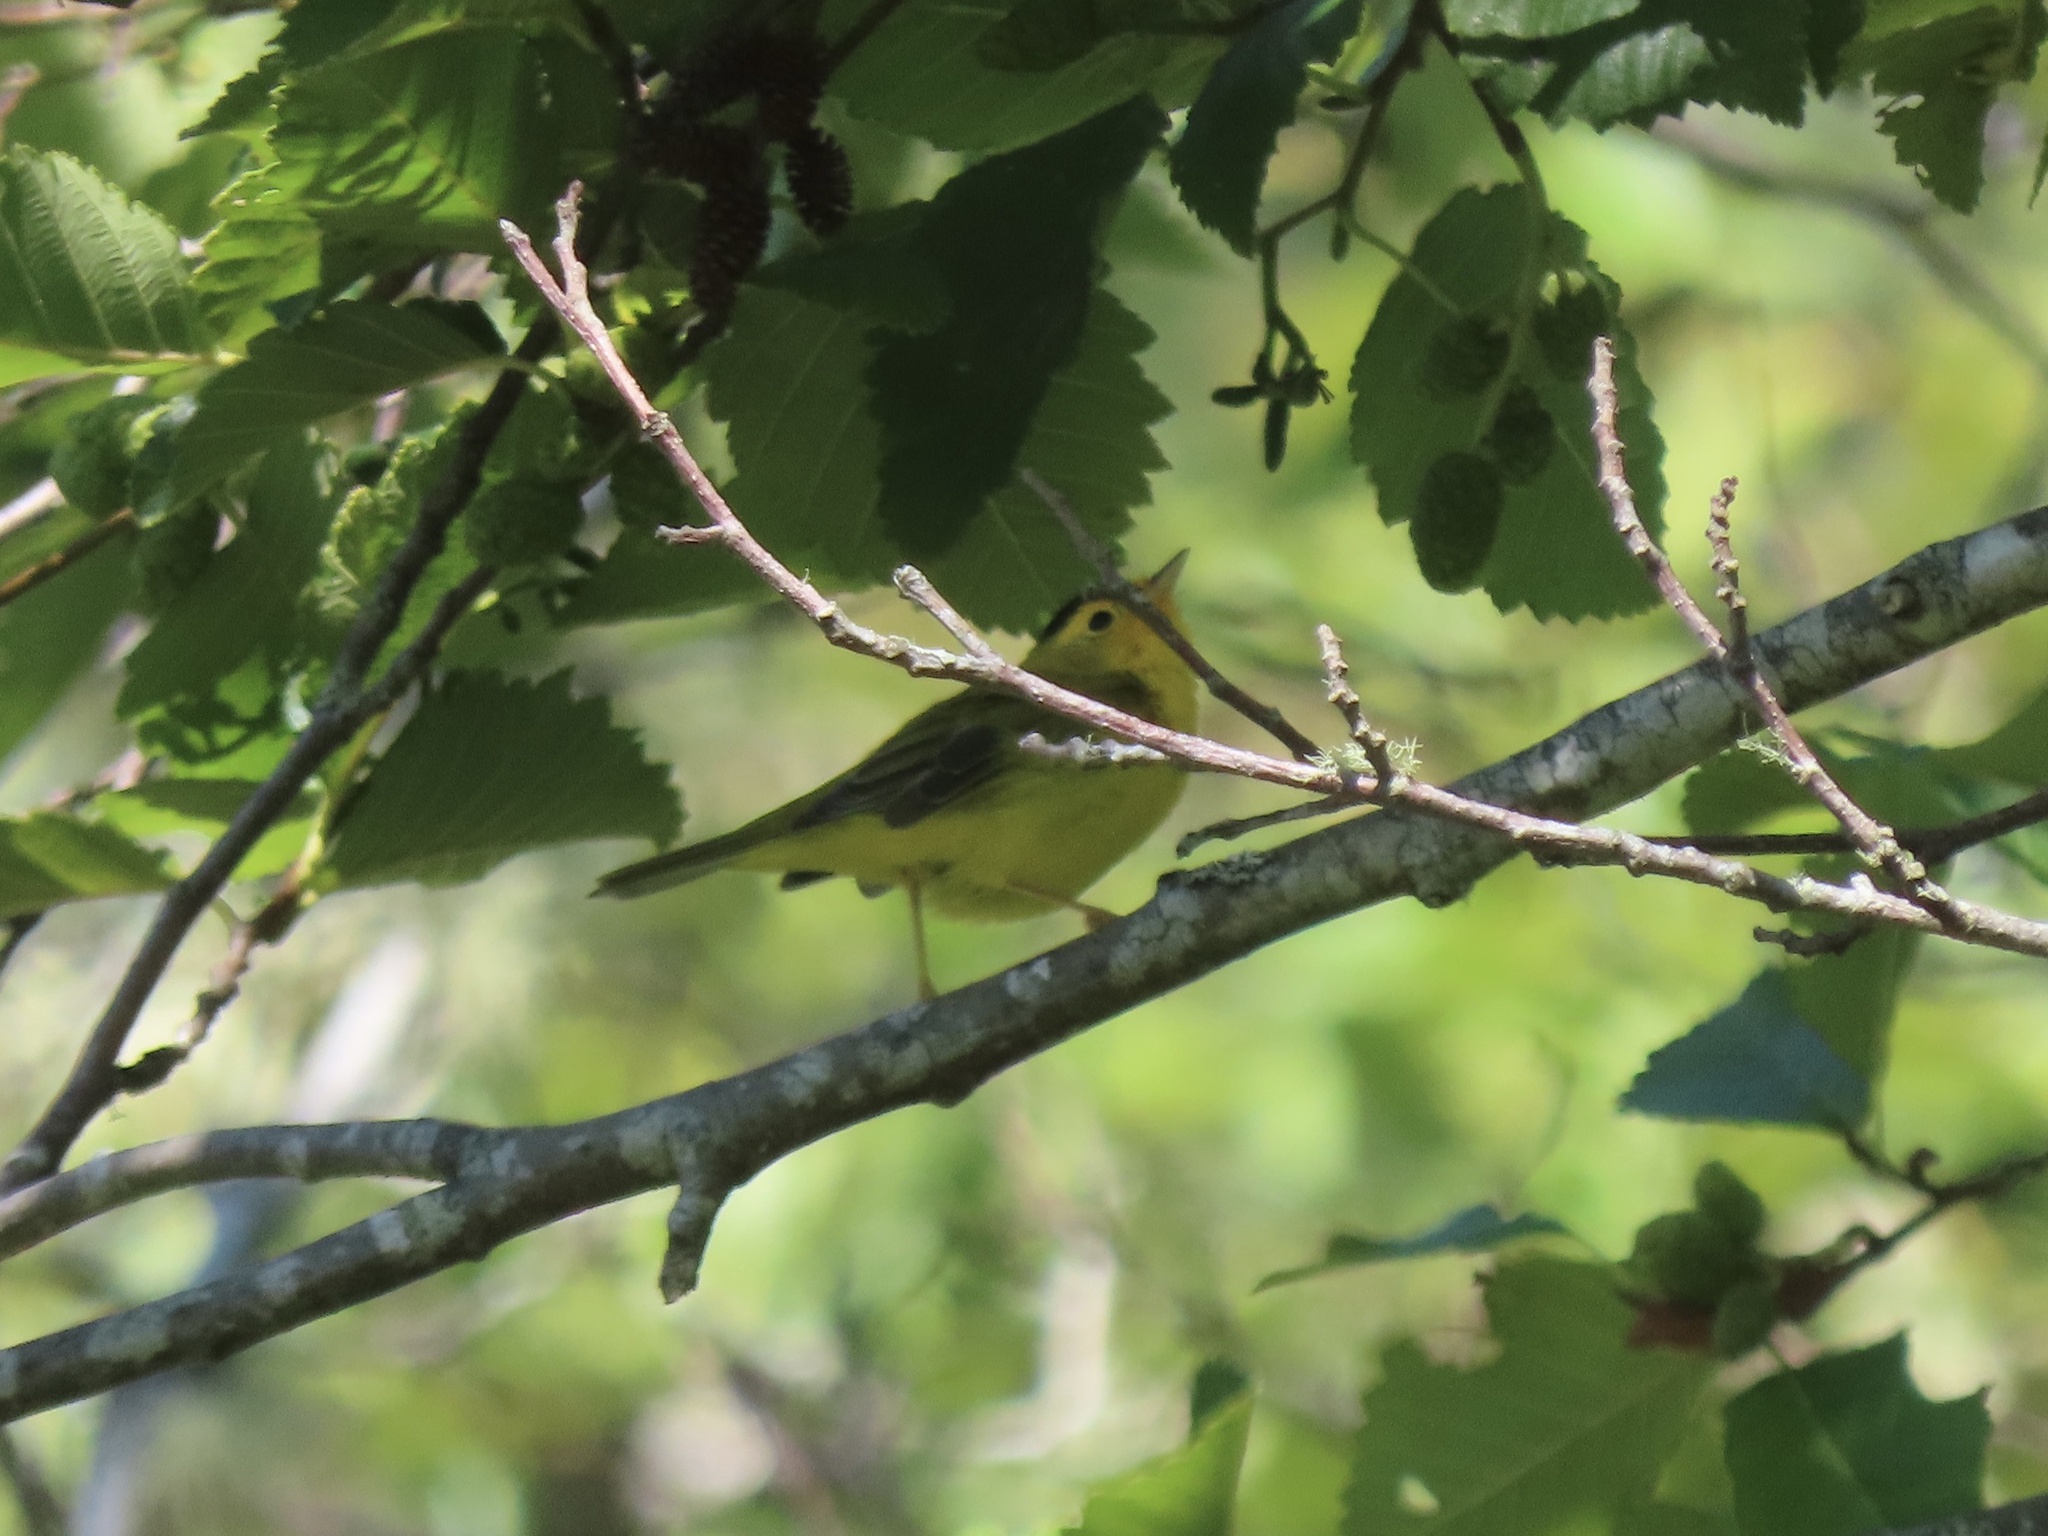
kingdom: Animalia
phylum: Chordata
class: Aves
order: Passeriformes
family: Parulidae
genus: Cardellina
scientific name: Cardellina pusilla
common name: Wilson's warbler
